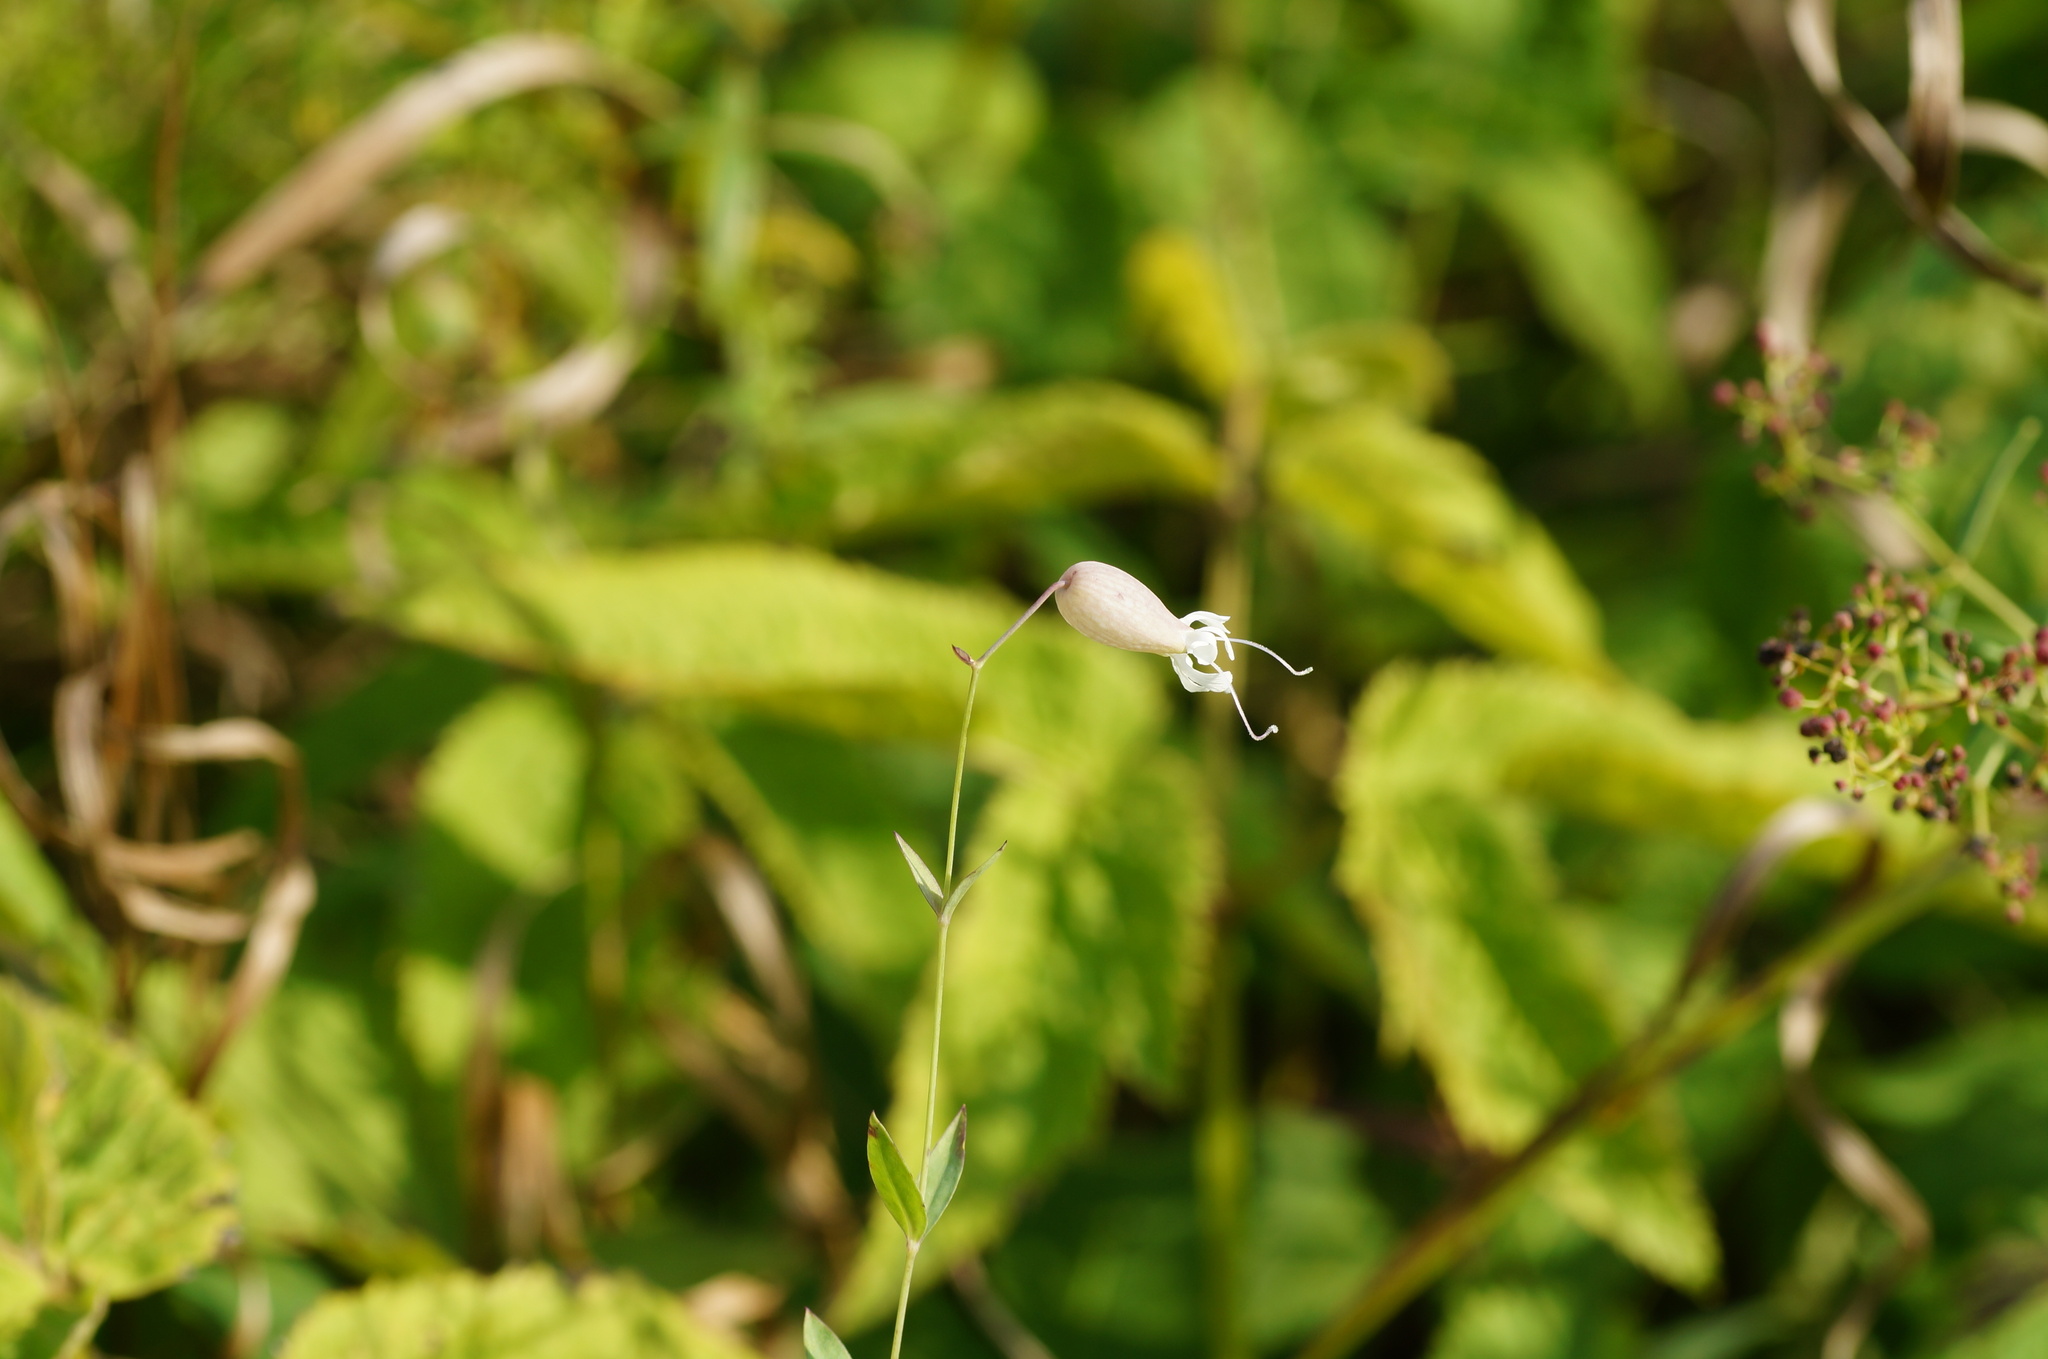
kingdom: Plantae
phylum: Tracheophyta
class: Magnoliopsida
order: Caryophyllales
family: Caryophyllaceae
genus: Silene
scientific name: Silene vulgaris
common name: Bladder campion
